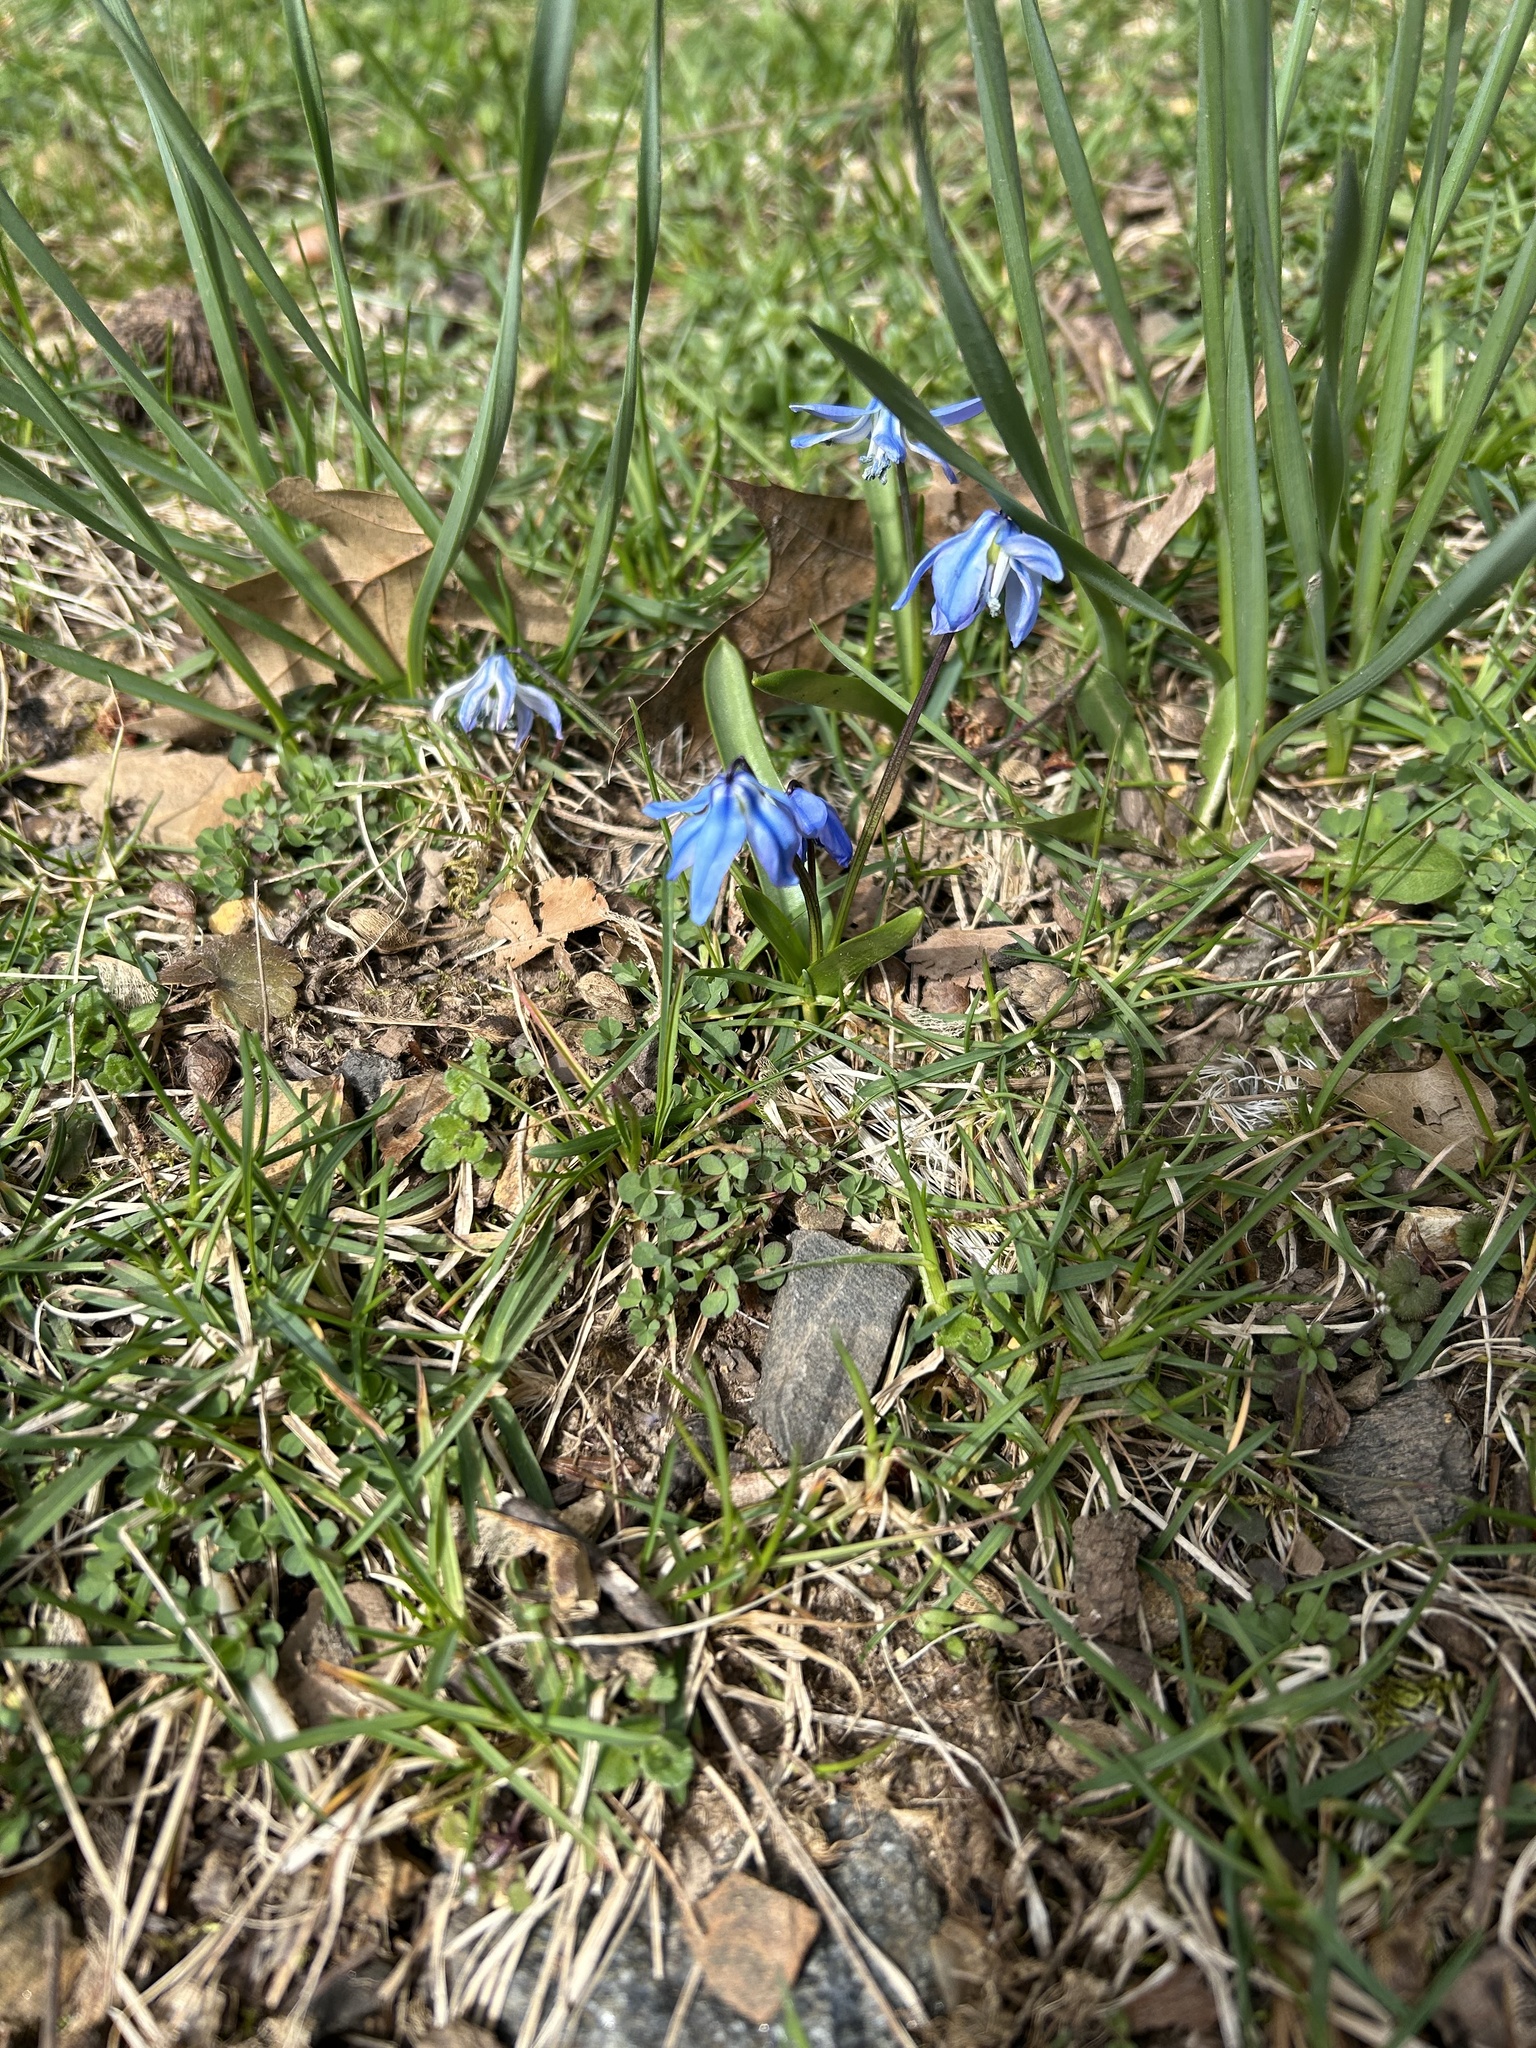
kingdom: Plantae
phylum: Tracheophyta
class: Liliopsida
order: Asparagales
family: Asparagaceae
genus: Scilla
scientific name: Scilla siberica
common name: Siberian squill
